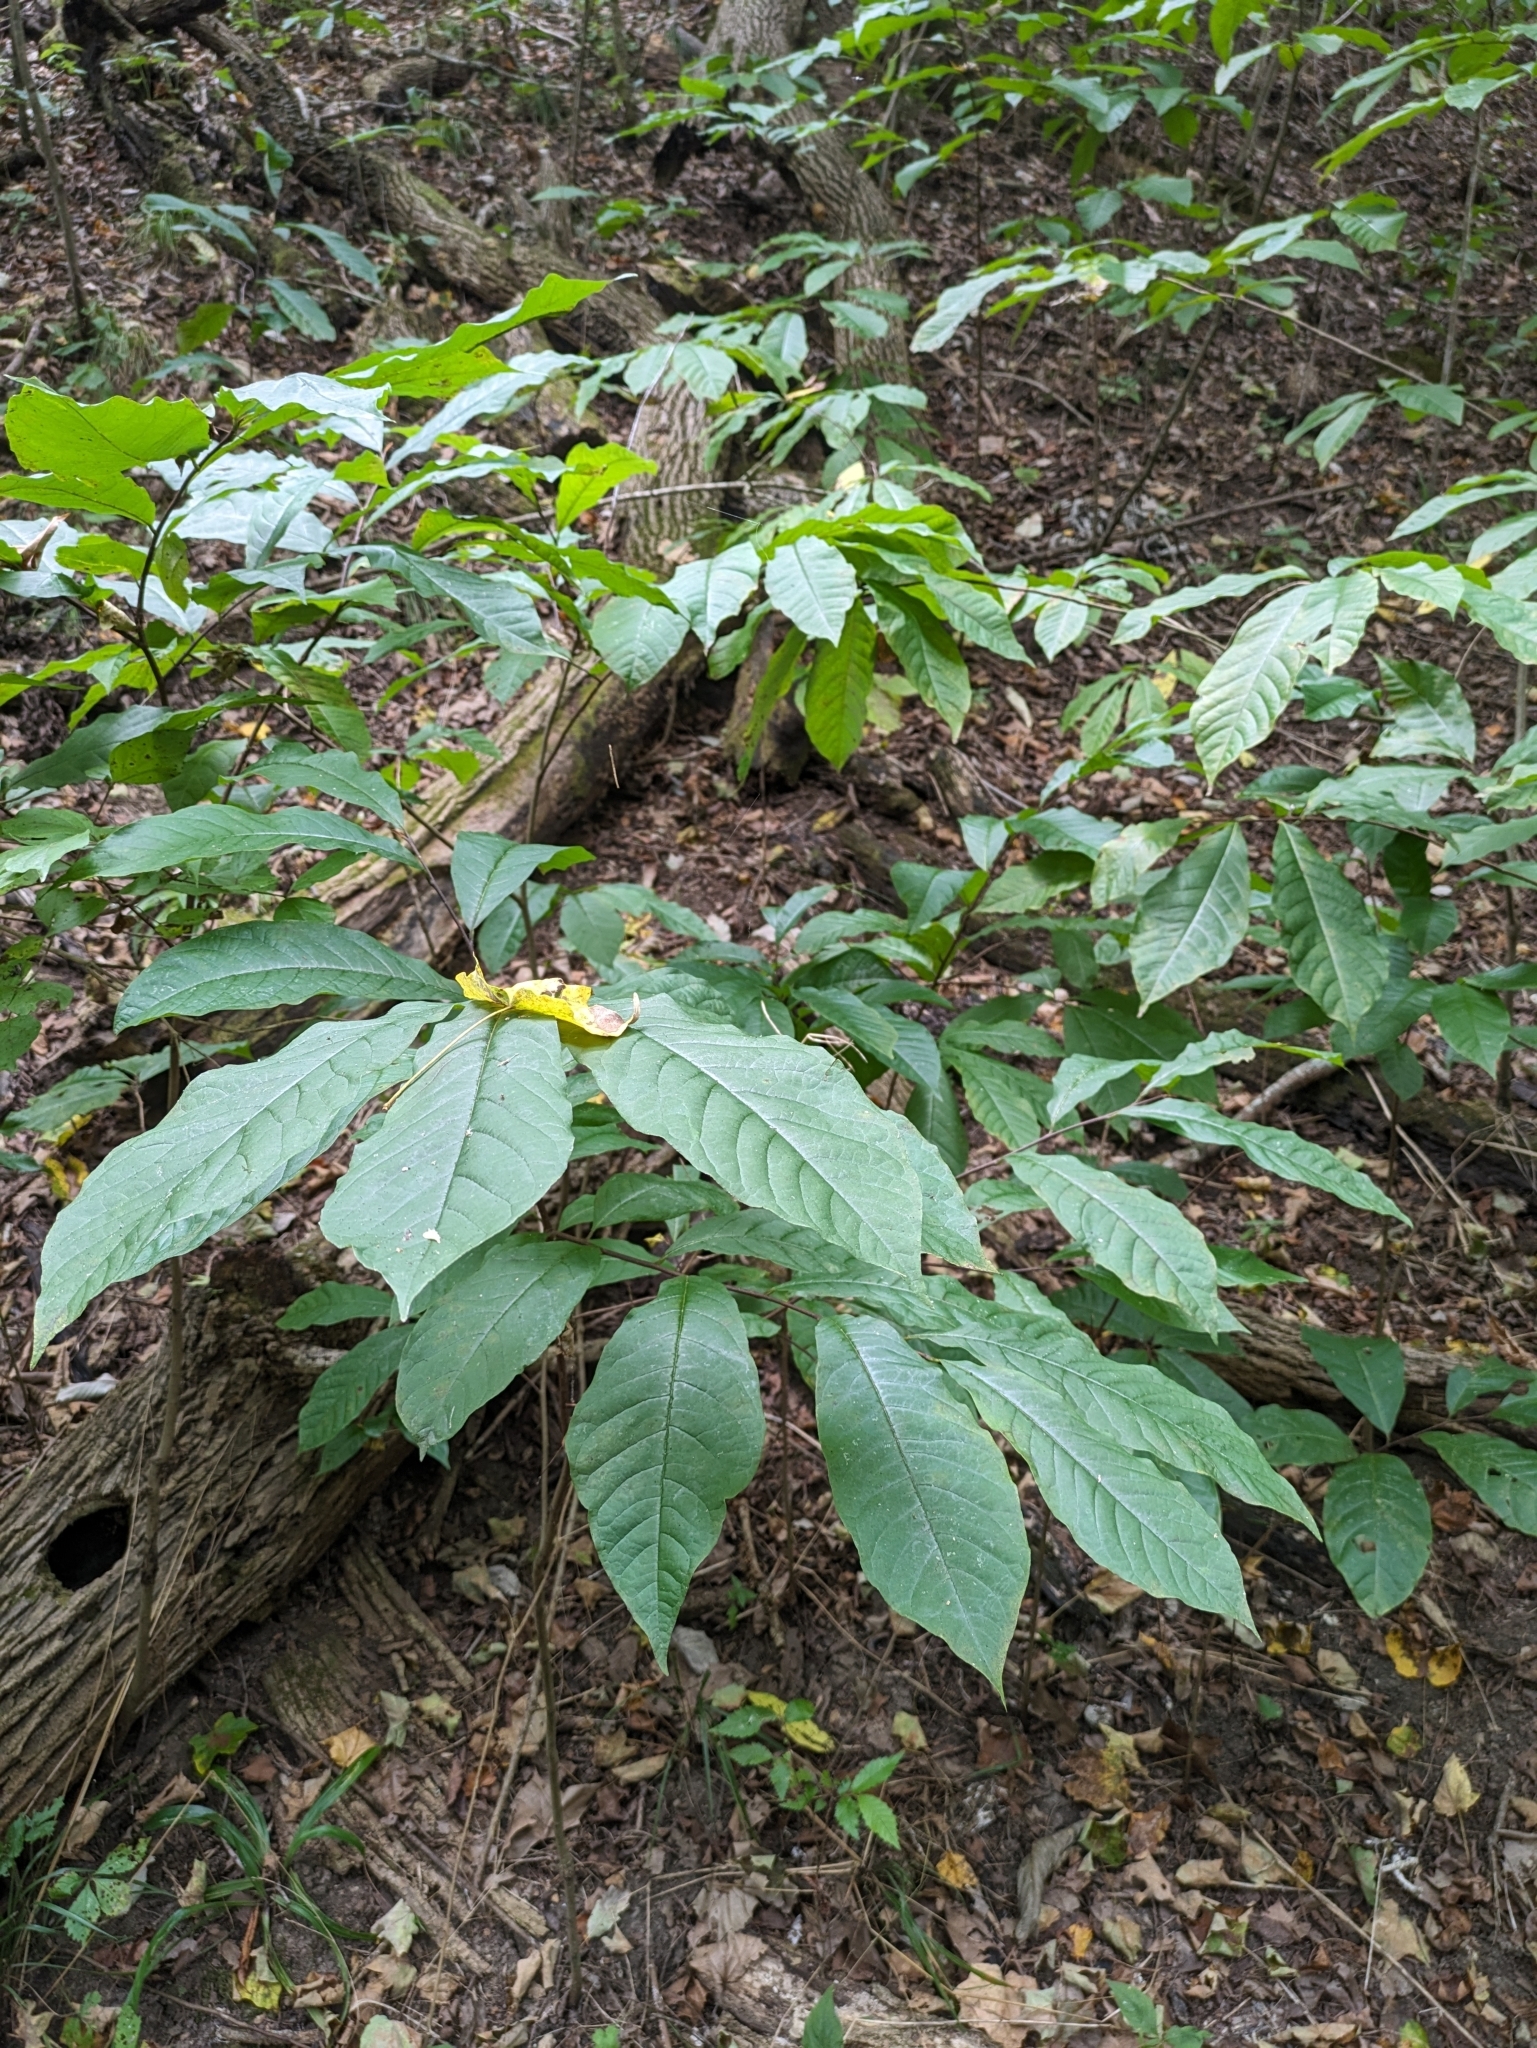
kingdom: Plantae
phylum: Tracheophyta
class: Magnoliopsida
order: Magnoliales
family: Annonaceae
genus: Asimina
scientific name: Asimina triloba
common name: Dog-banana
